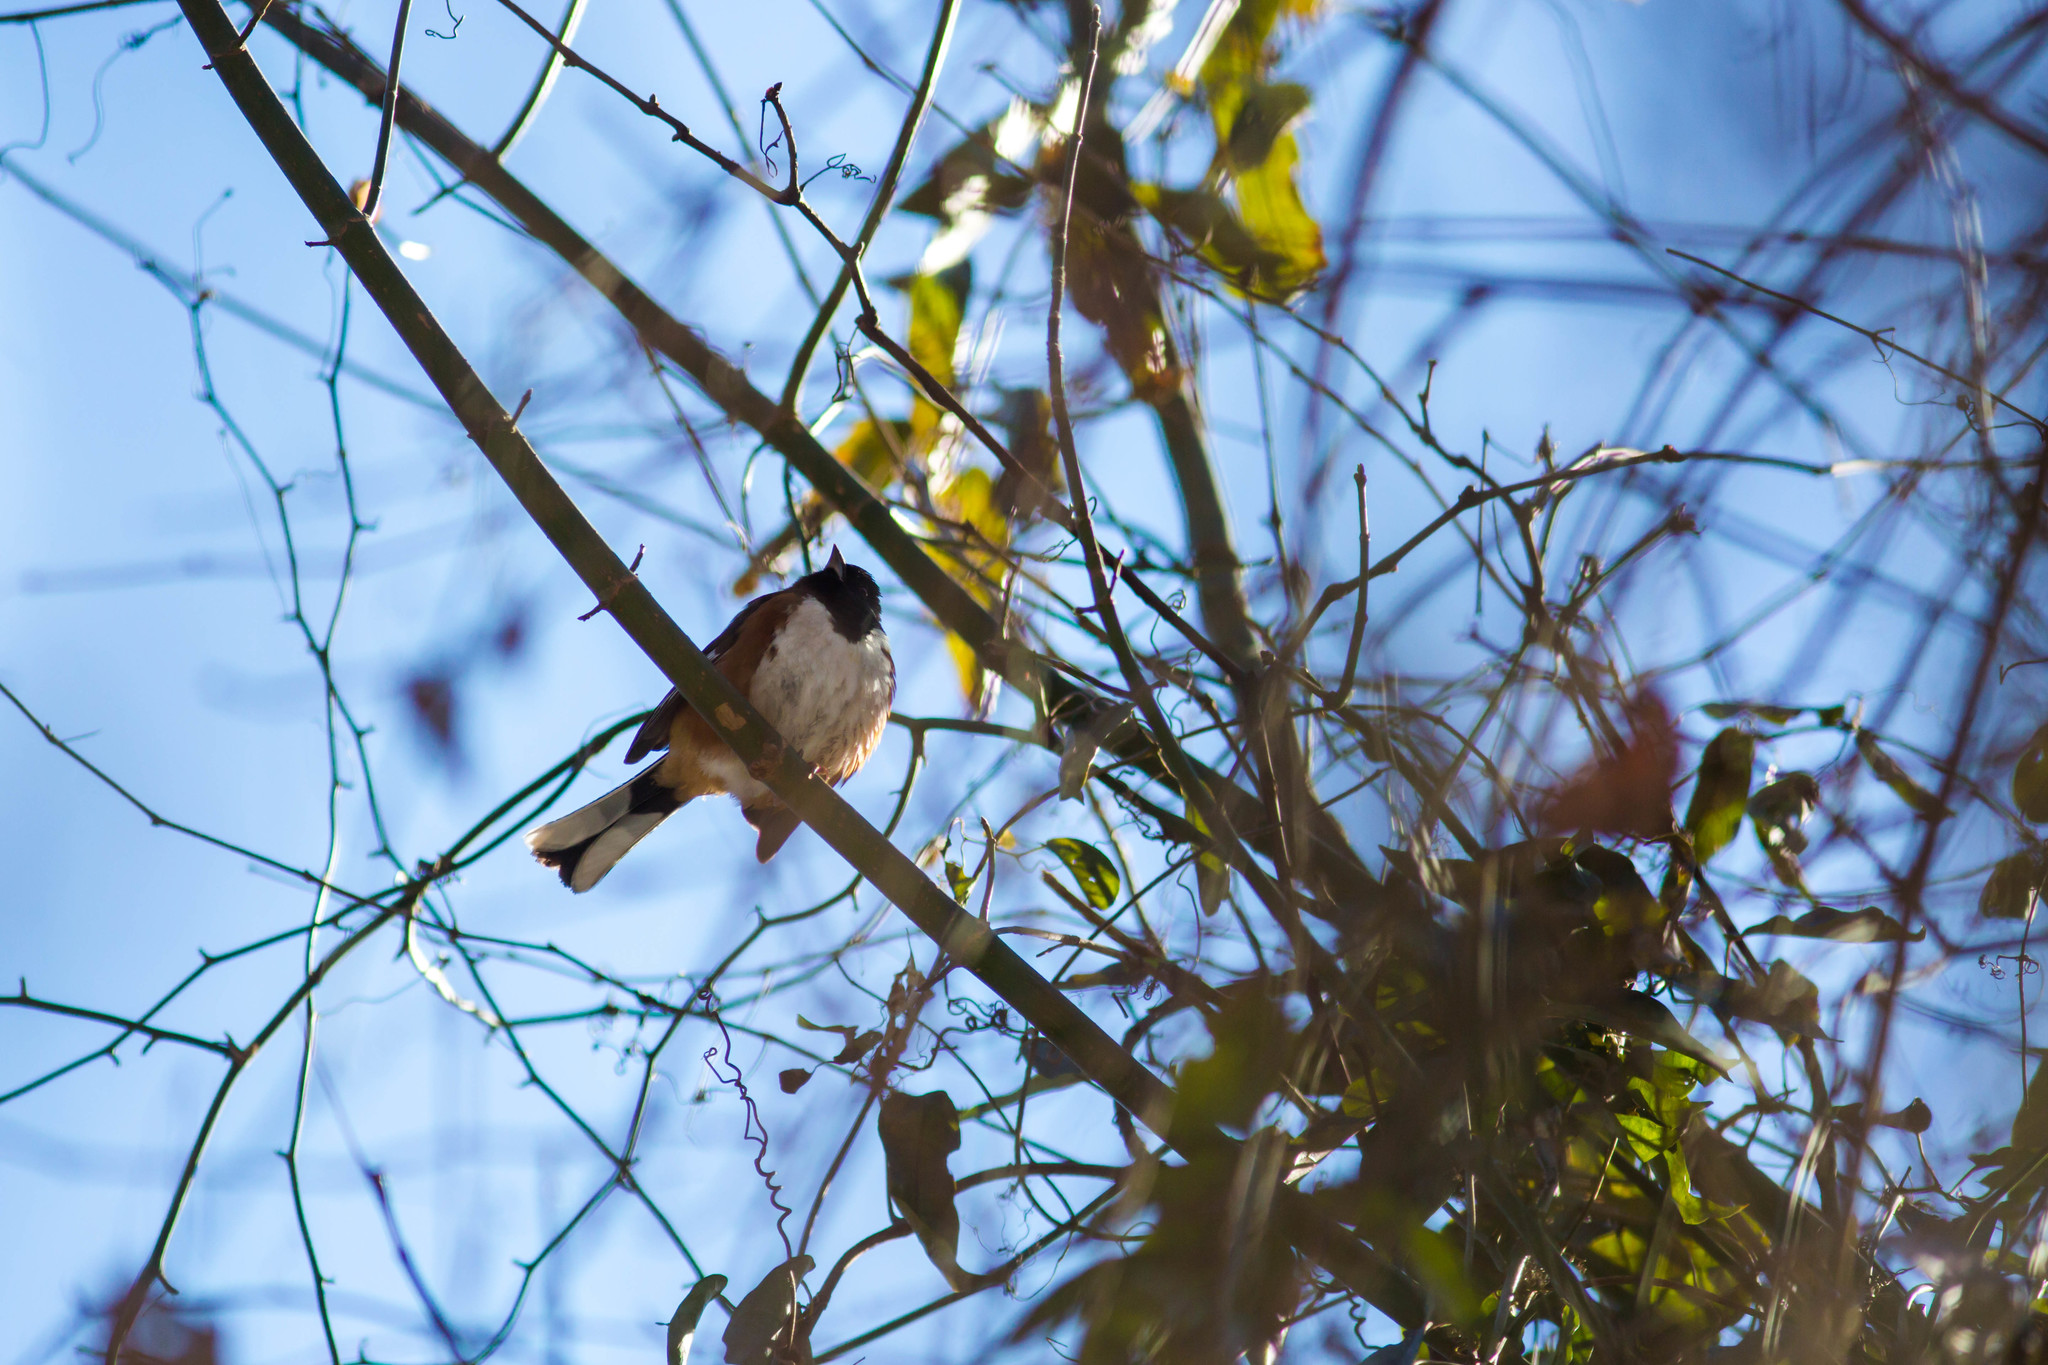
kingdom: Animalia
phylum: Chordata
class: Aves
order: Passeriformes
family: Passerellidae
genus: Pipilo
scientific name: Pipilo erythrophthalmus
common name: Eastern towhee
